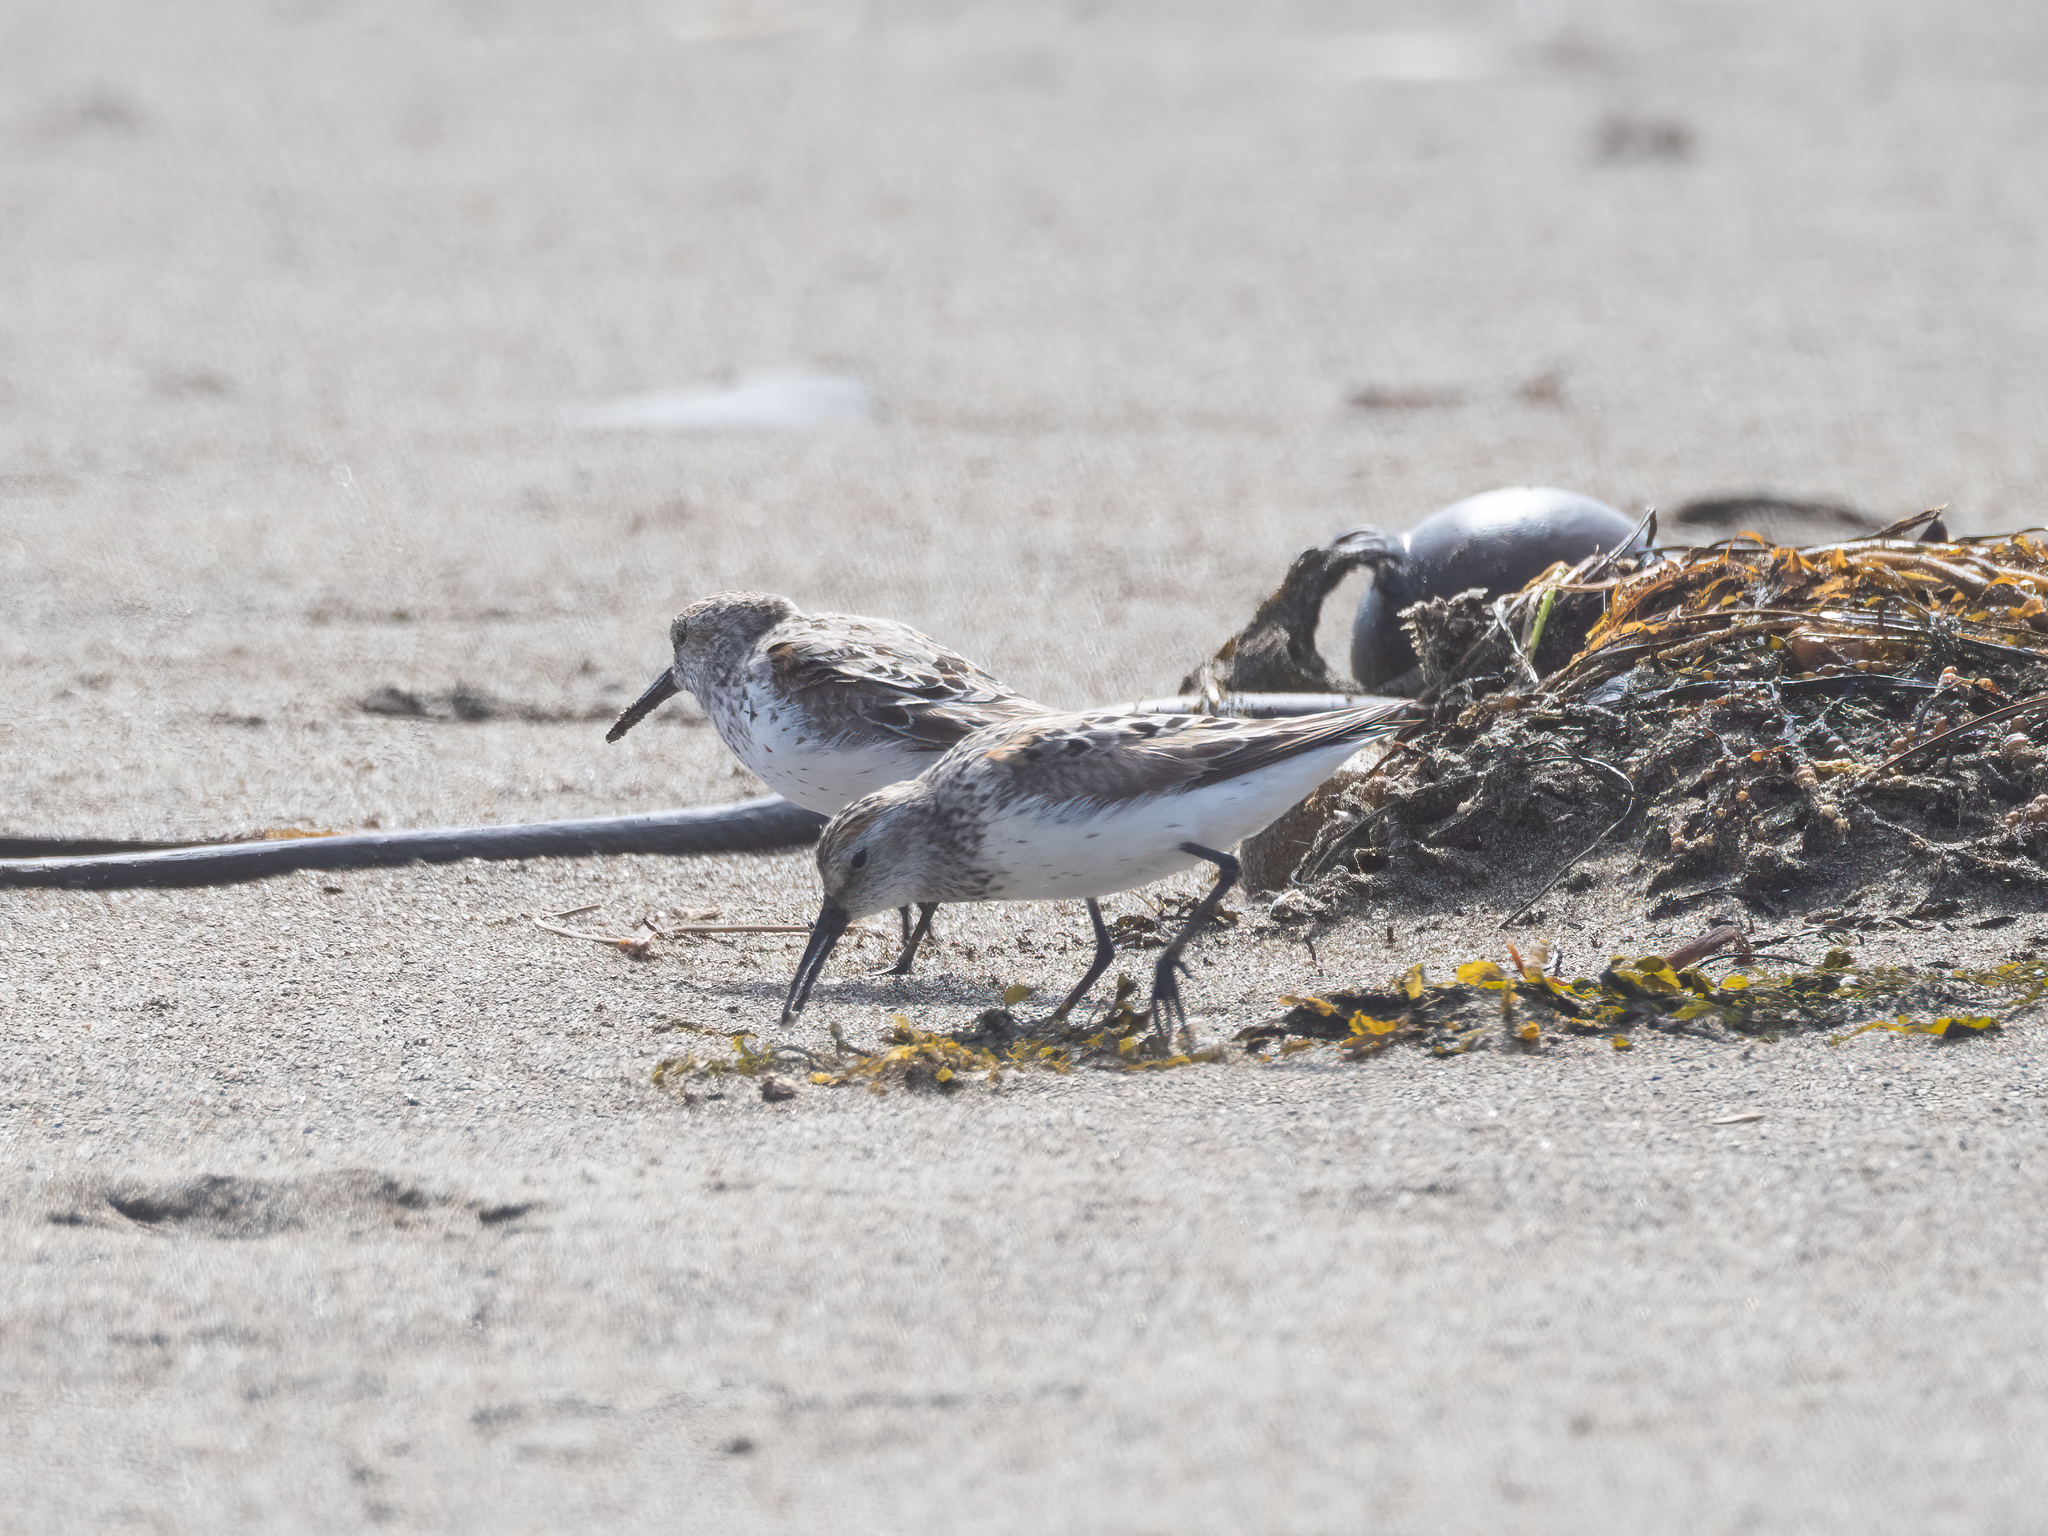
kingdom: Animalia
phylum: Chordata
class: Aves
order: Charadriiformes
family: Scolopacidae
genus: Calidris
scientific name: Calidris mauri
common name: Western sandpiper
